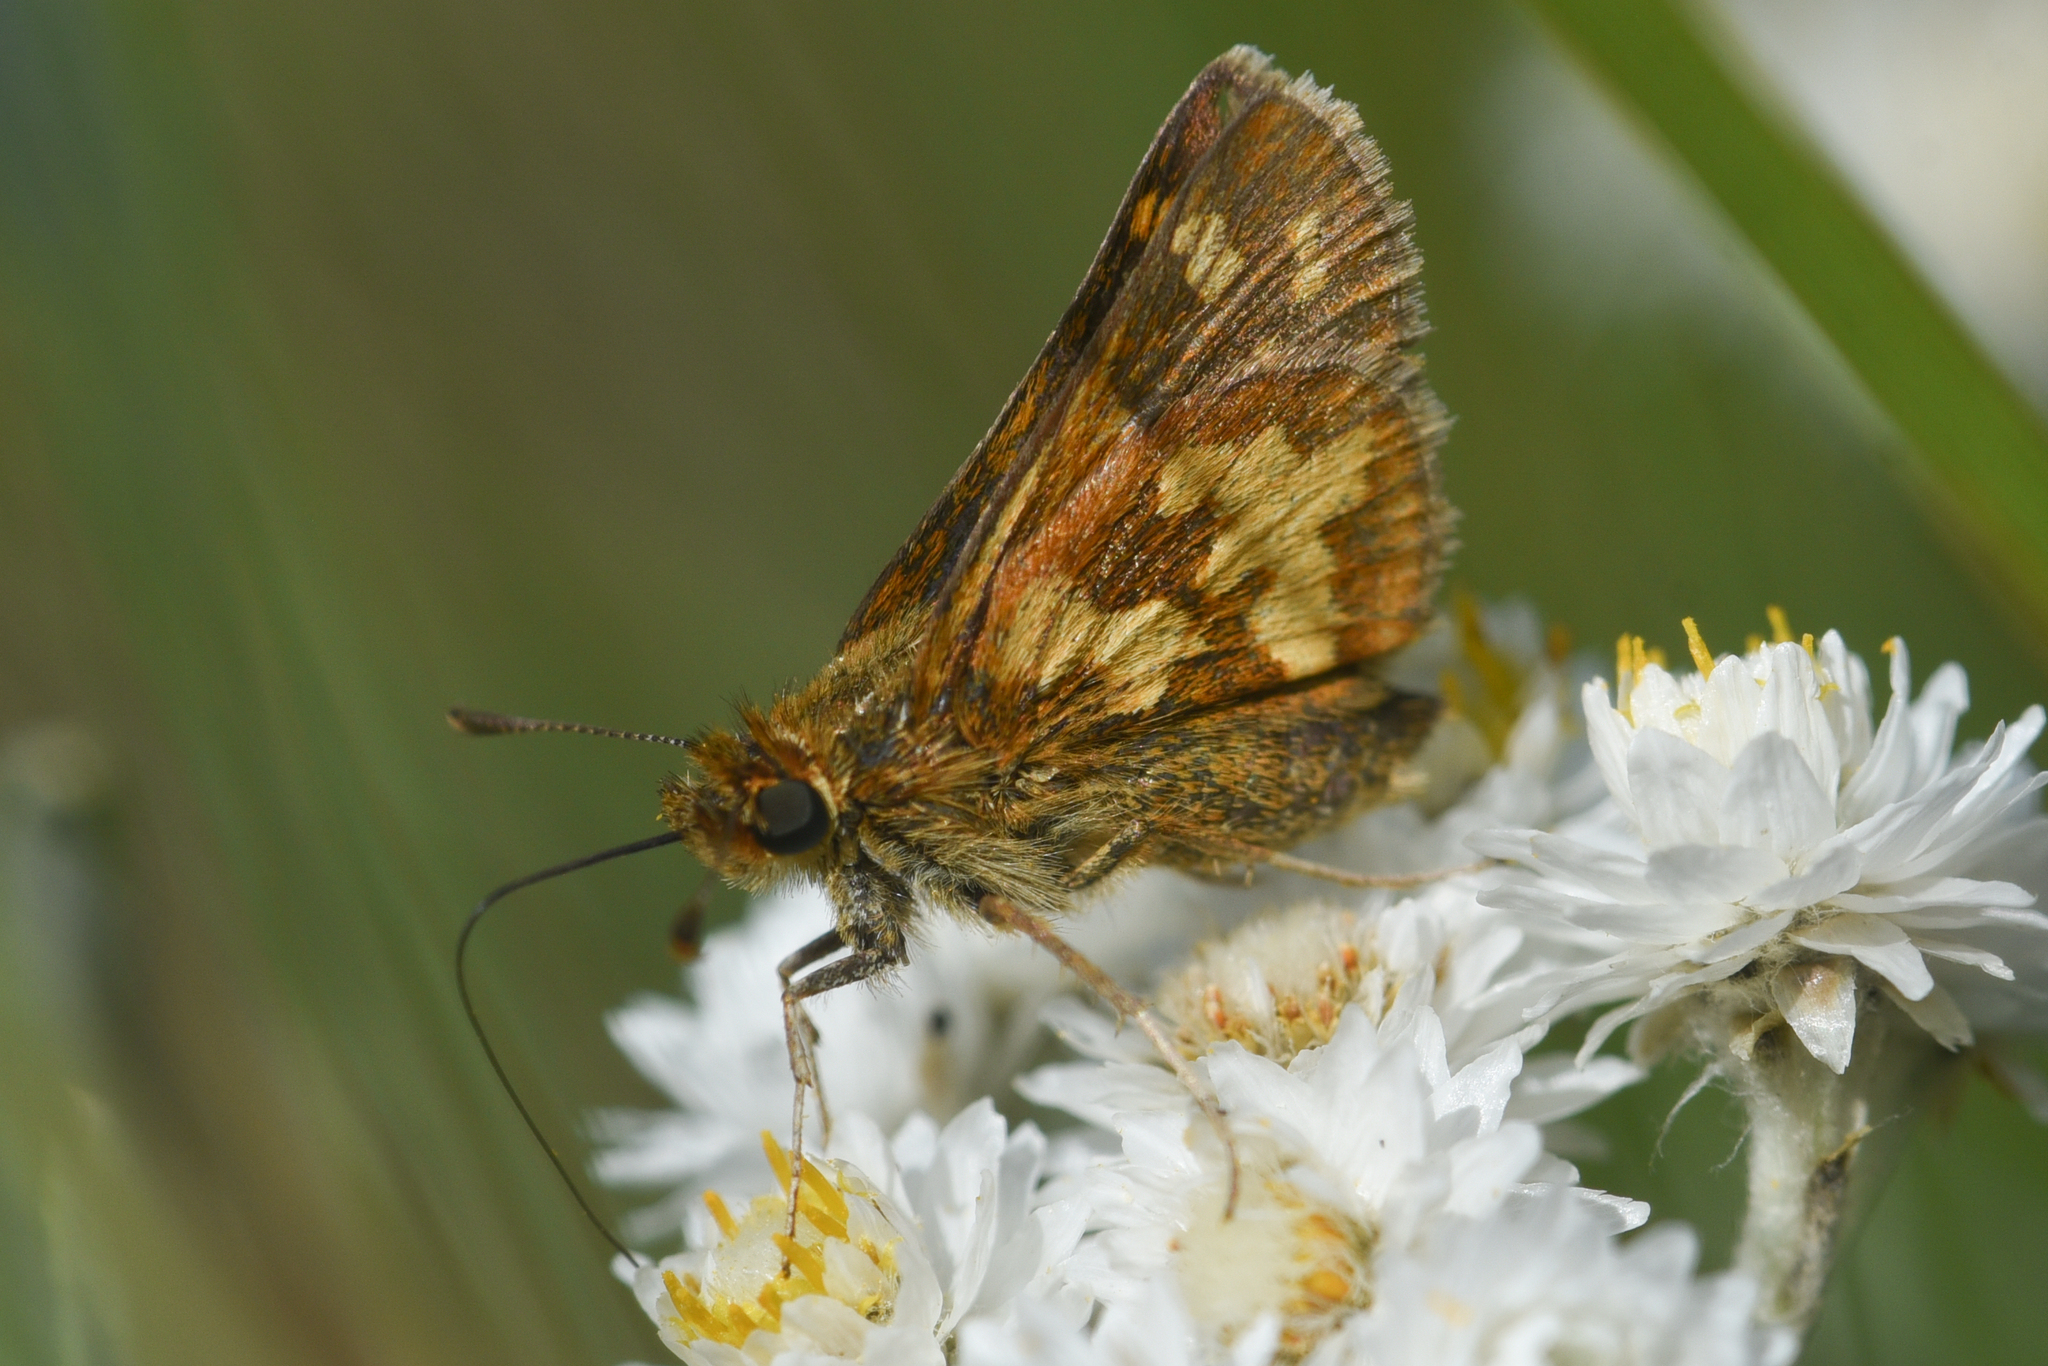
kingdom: Animalia
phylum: Arthropoda
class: Insecta
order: Lepidoptera
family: Hesperiidae
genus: Polites
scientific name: Polites coras
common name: Peck's skipper
